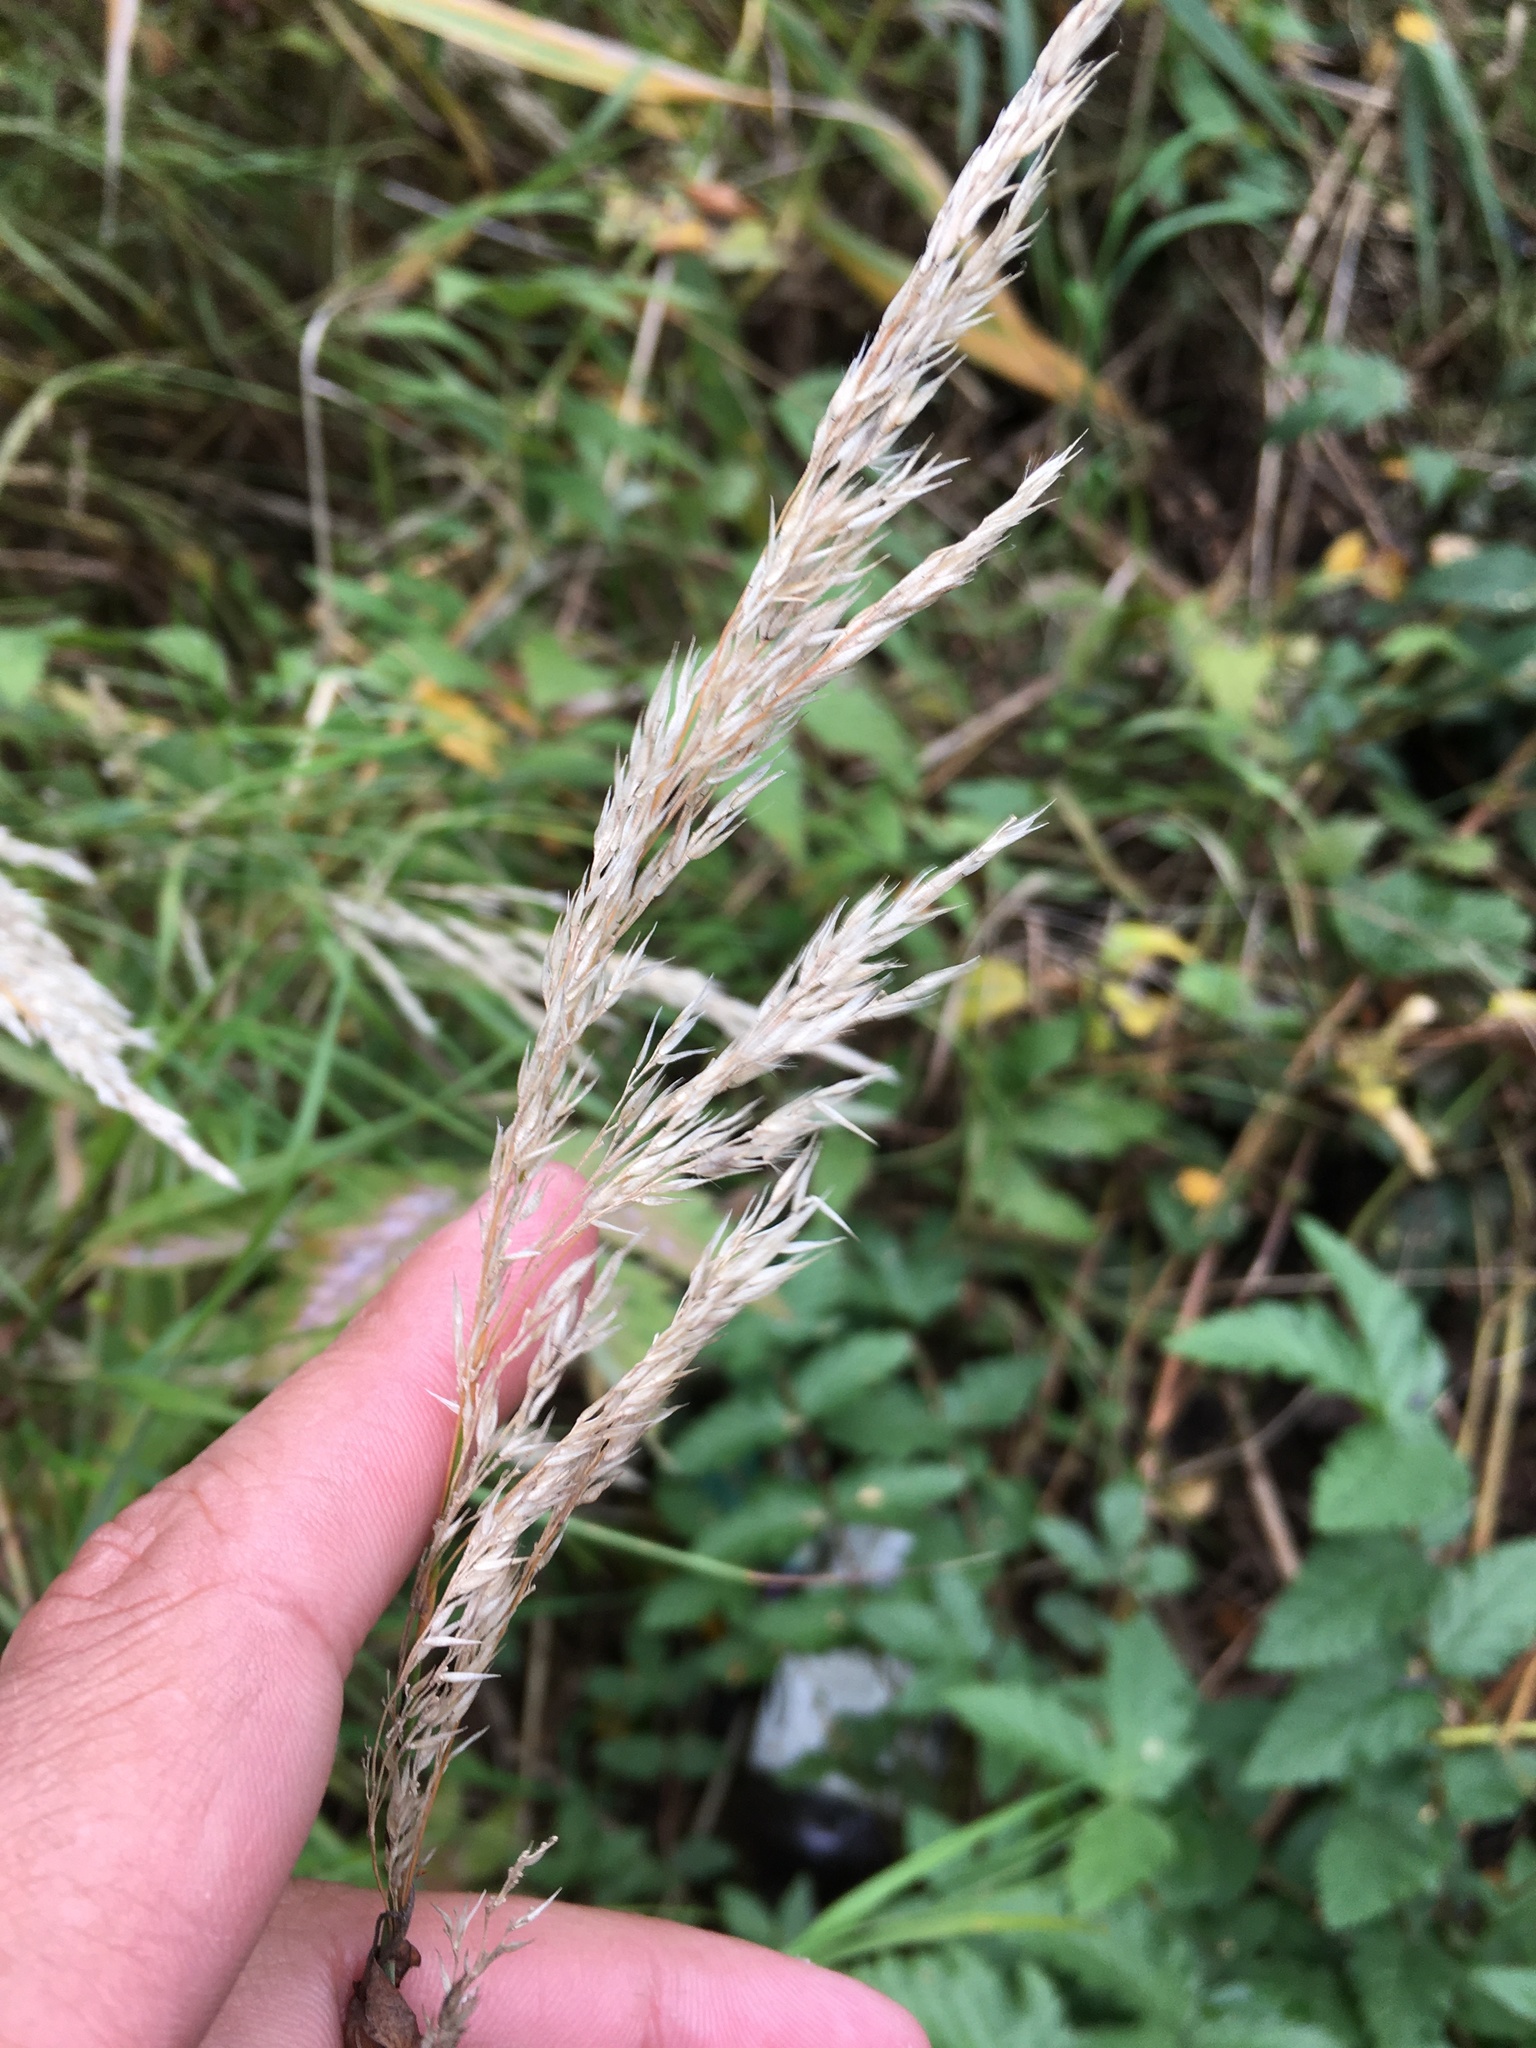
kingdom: Plantae
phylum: Tracheophyta
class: Liliopsida
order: Poales
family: Poaceae
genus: Calamagrostis
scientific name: Calamagrostis epigejos
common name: Wood small-reed
